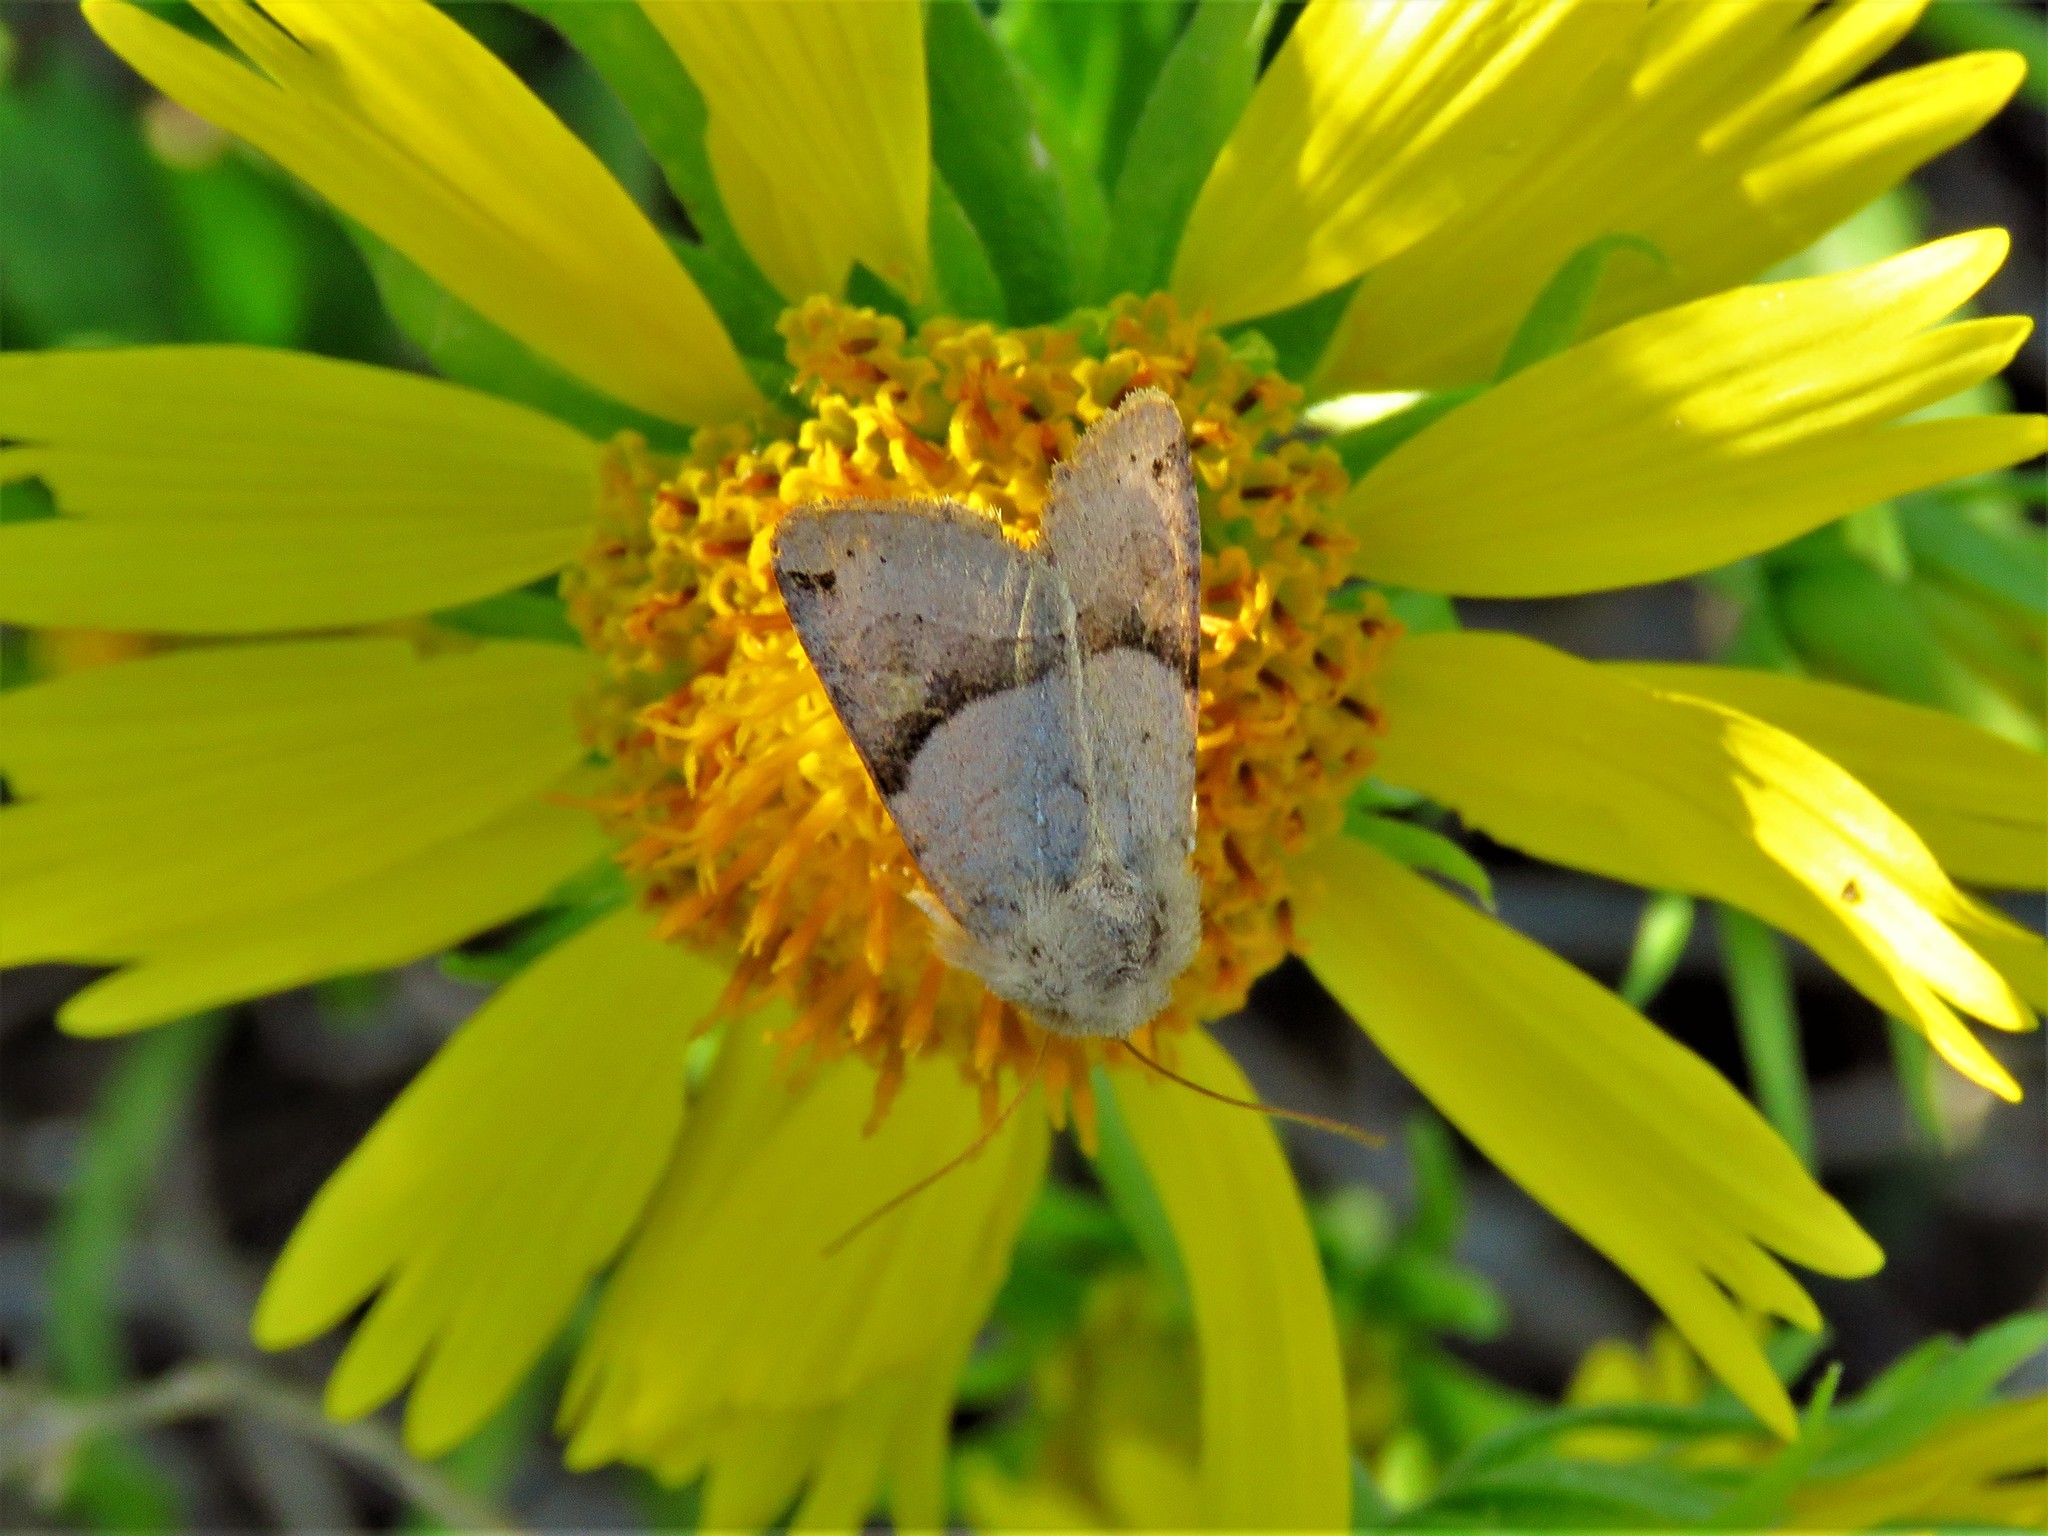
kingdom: Animalia
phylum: Arthropoda
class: Insecta
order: Lepidoptera
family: Noctuidae
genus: Ulolonche
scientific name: Ulolonche disticha
